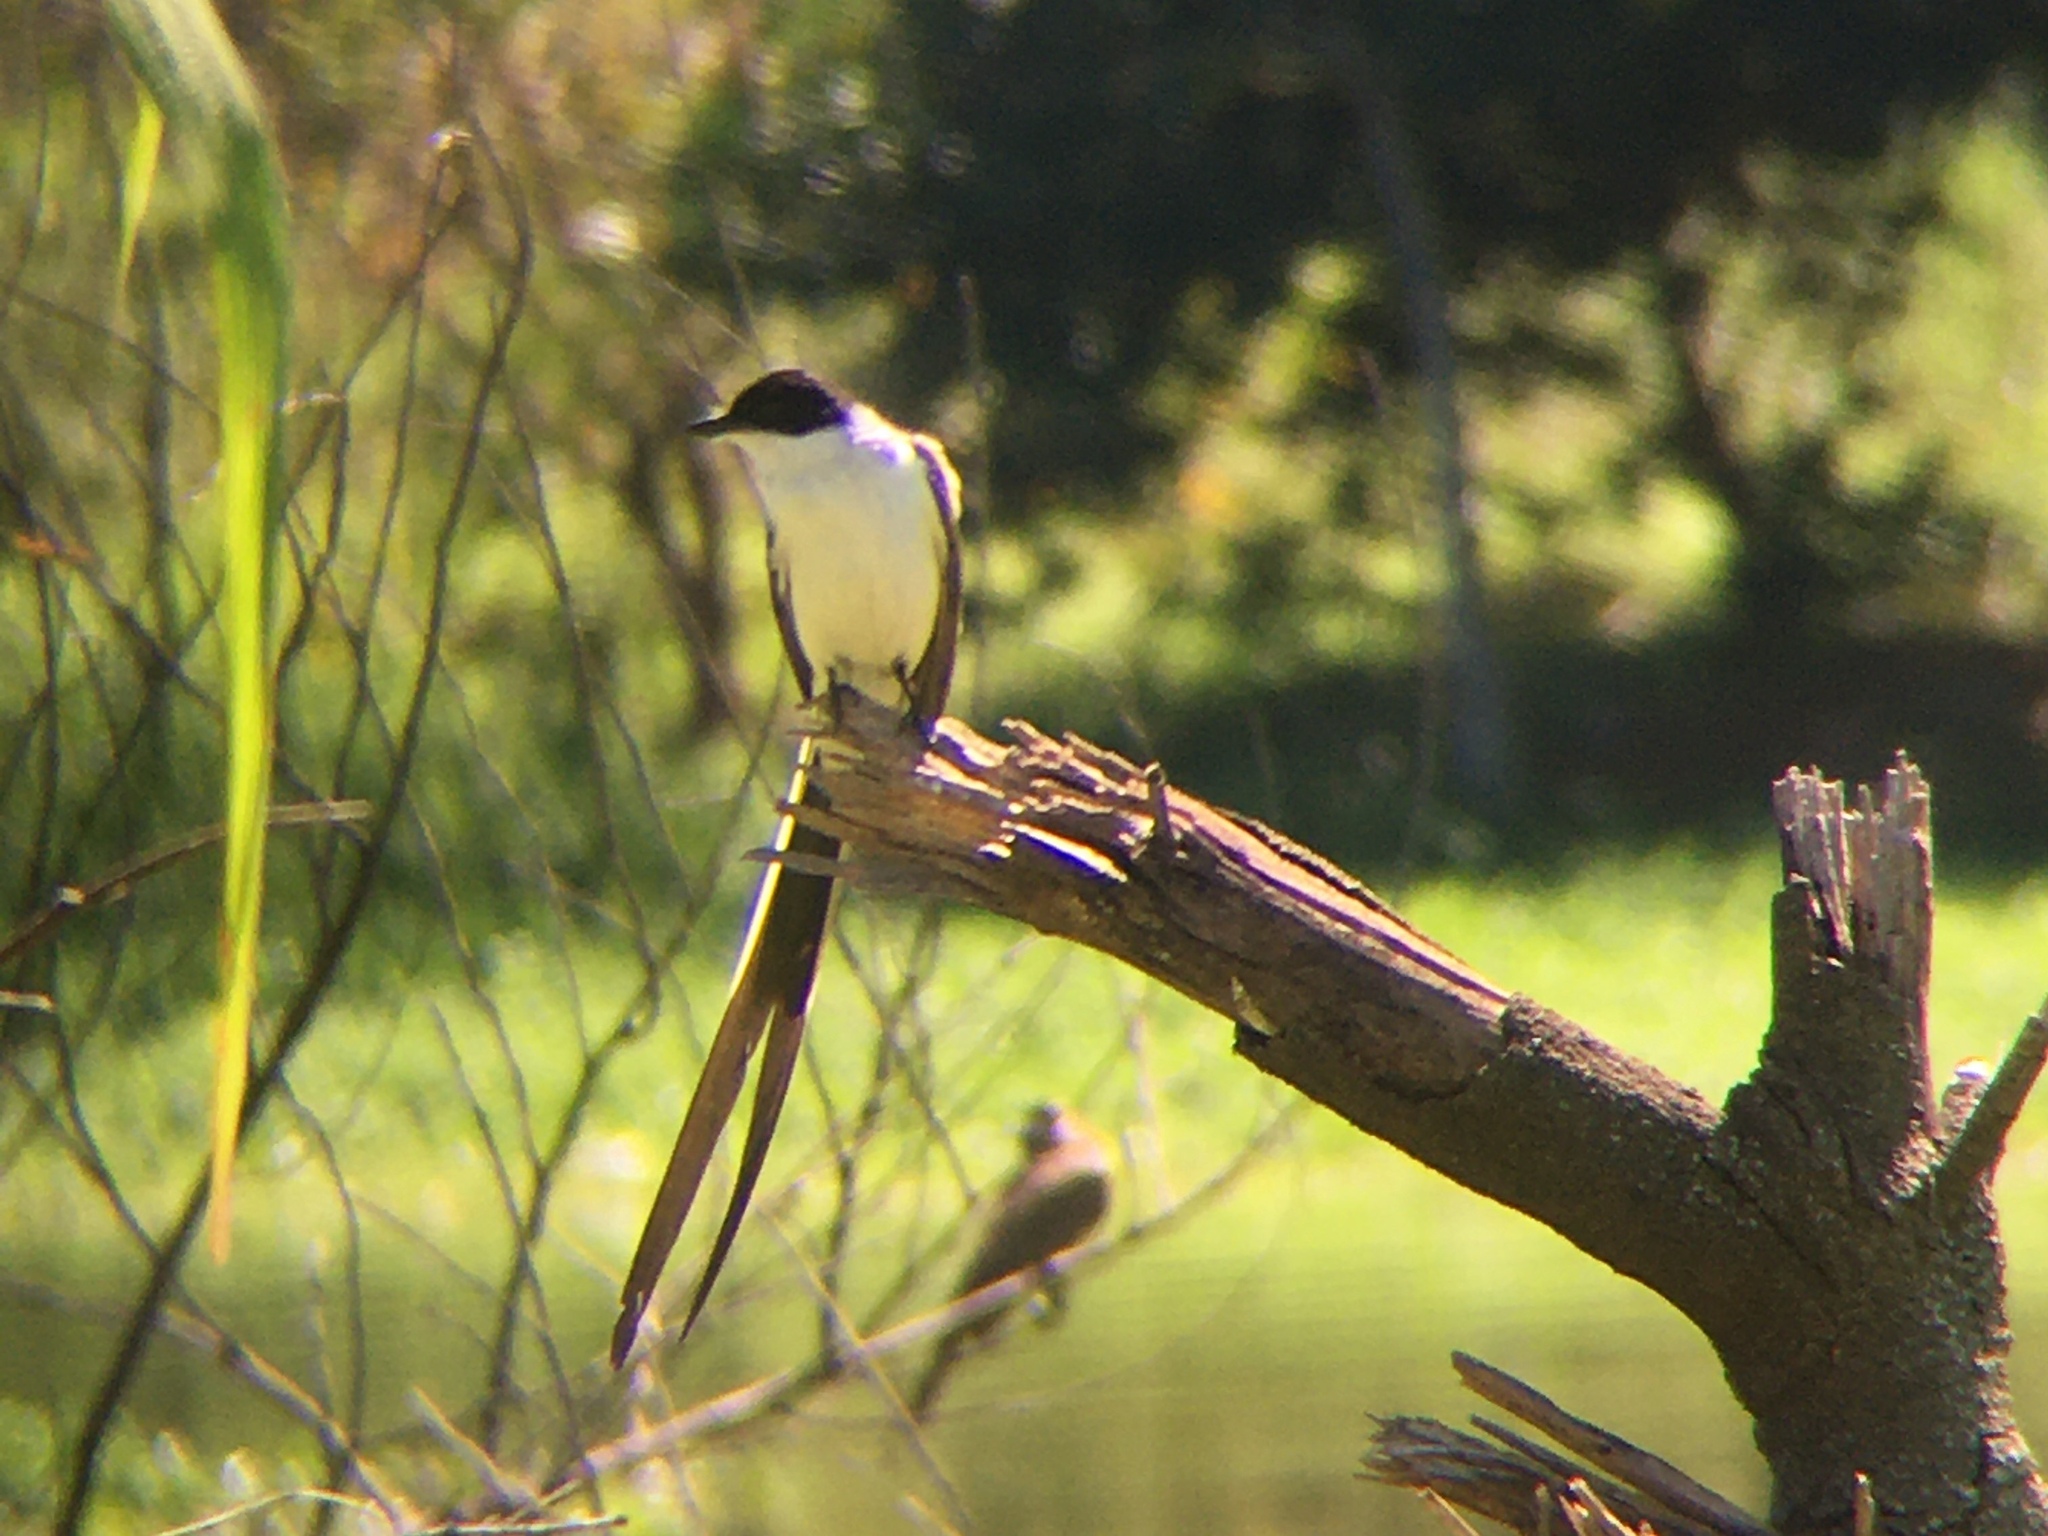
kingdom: Animalia
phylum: Chordata
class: Aves
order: Passeriformes
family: Tyrannidae
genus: Tyrannus
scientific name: Tyrannus savana
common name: Fork-tailed flycatcher
